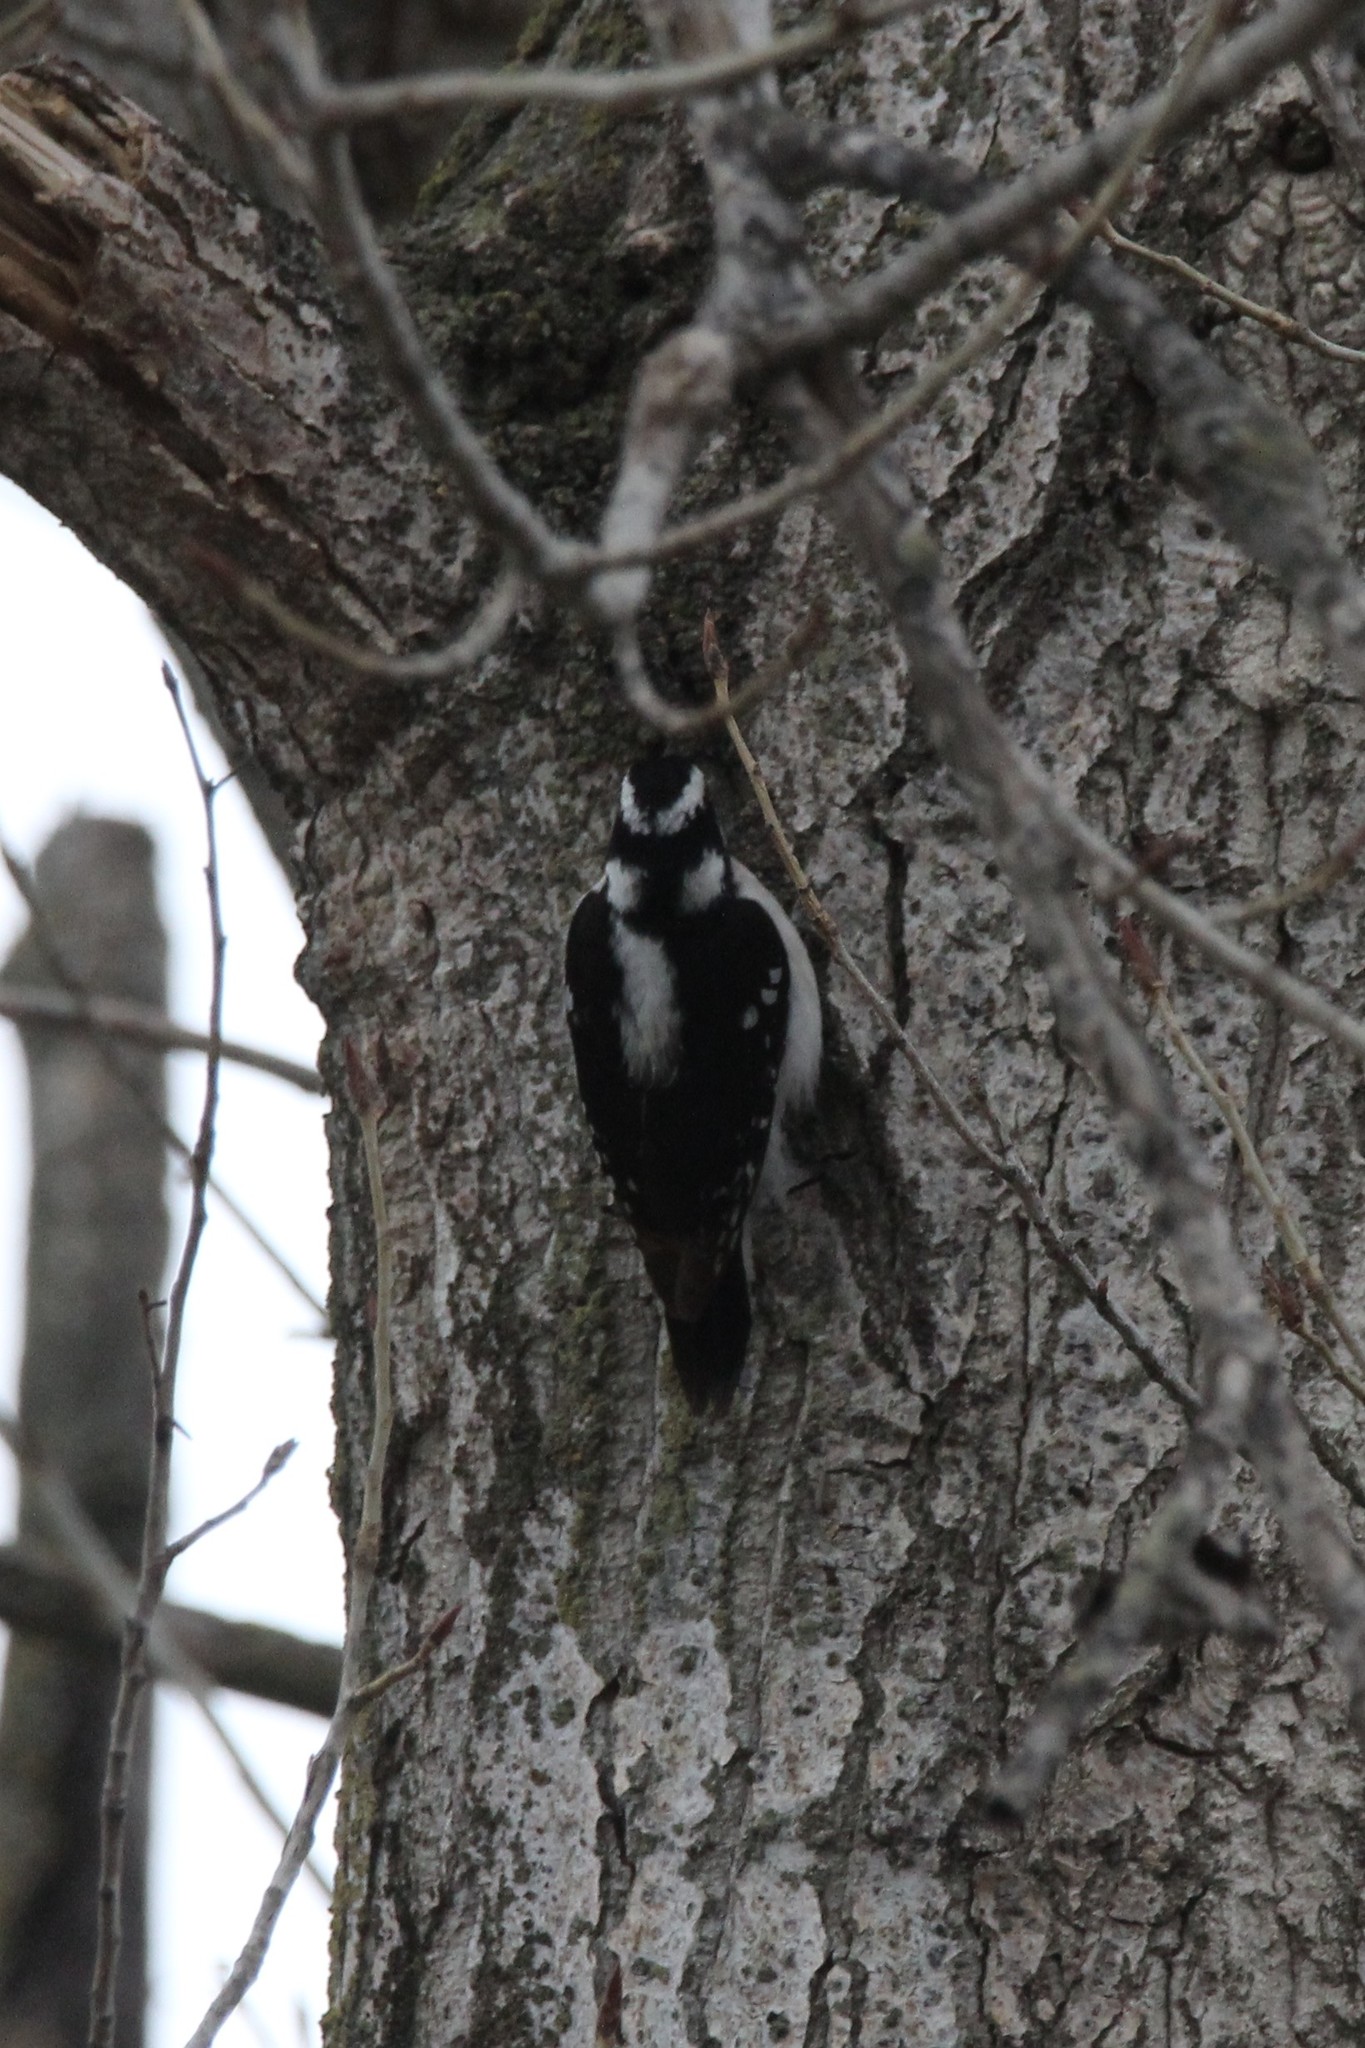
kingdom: Animalia
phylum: Chordata
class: Aves
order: Piciformes
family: Picidae
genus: Dryobates
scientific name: Dryobates pubescens
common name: Downy woodpecker
